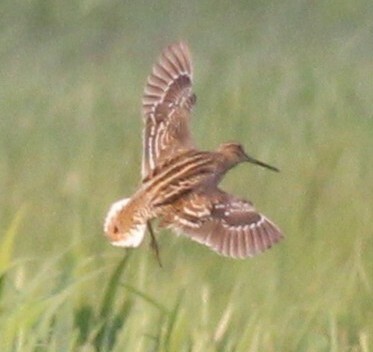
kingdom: Animalia
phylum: Chordata
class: Aves
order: Charadriiformes
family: Scolopacidae
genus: Gallinago
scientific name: Gallinago media
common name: Great snipe
